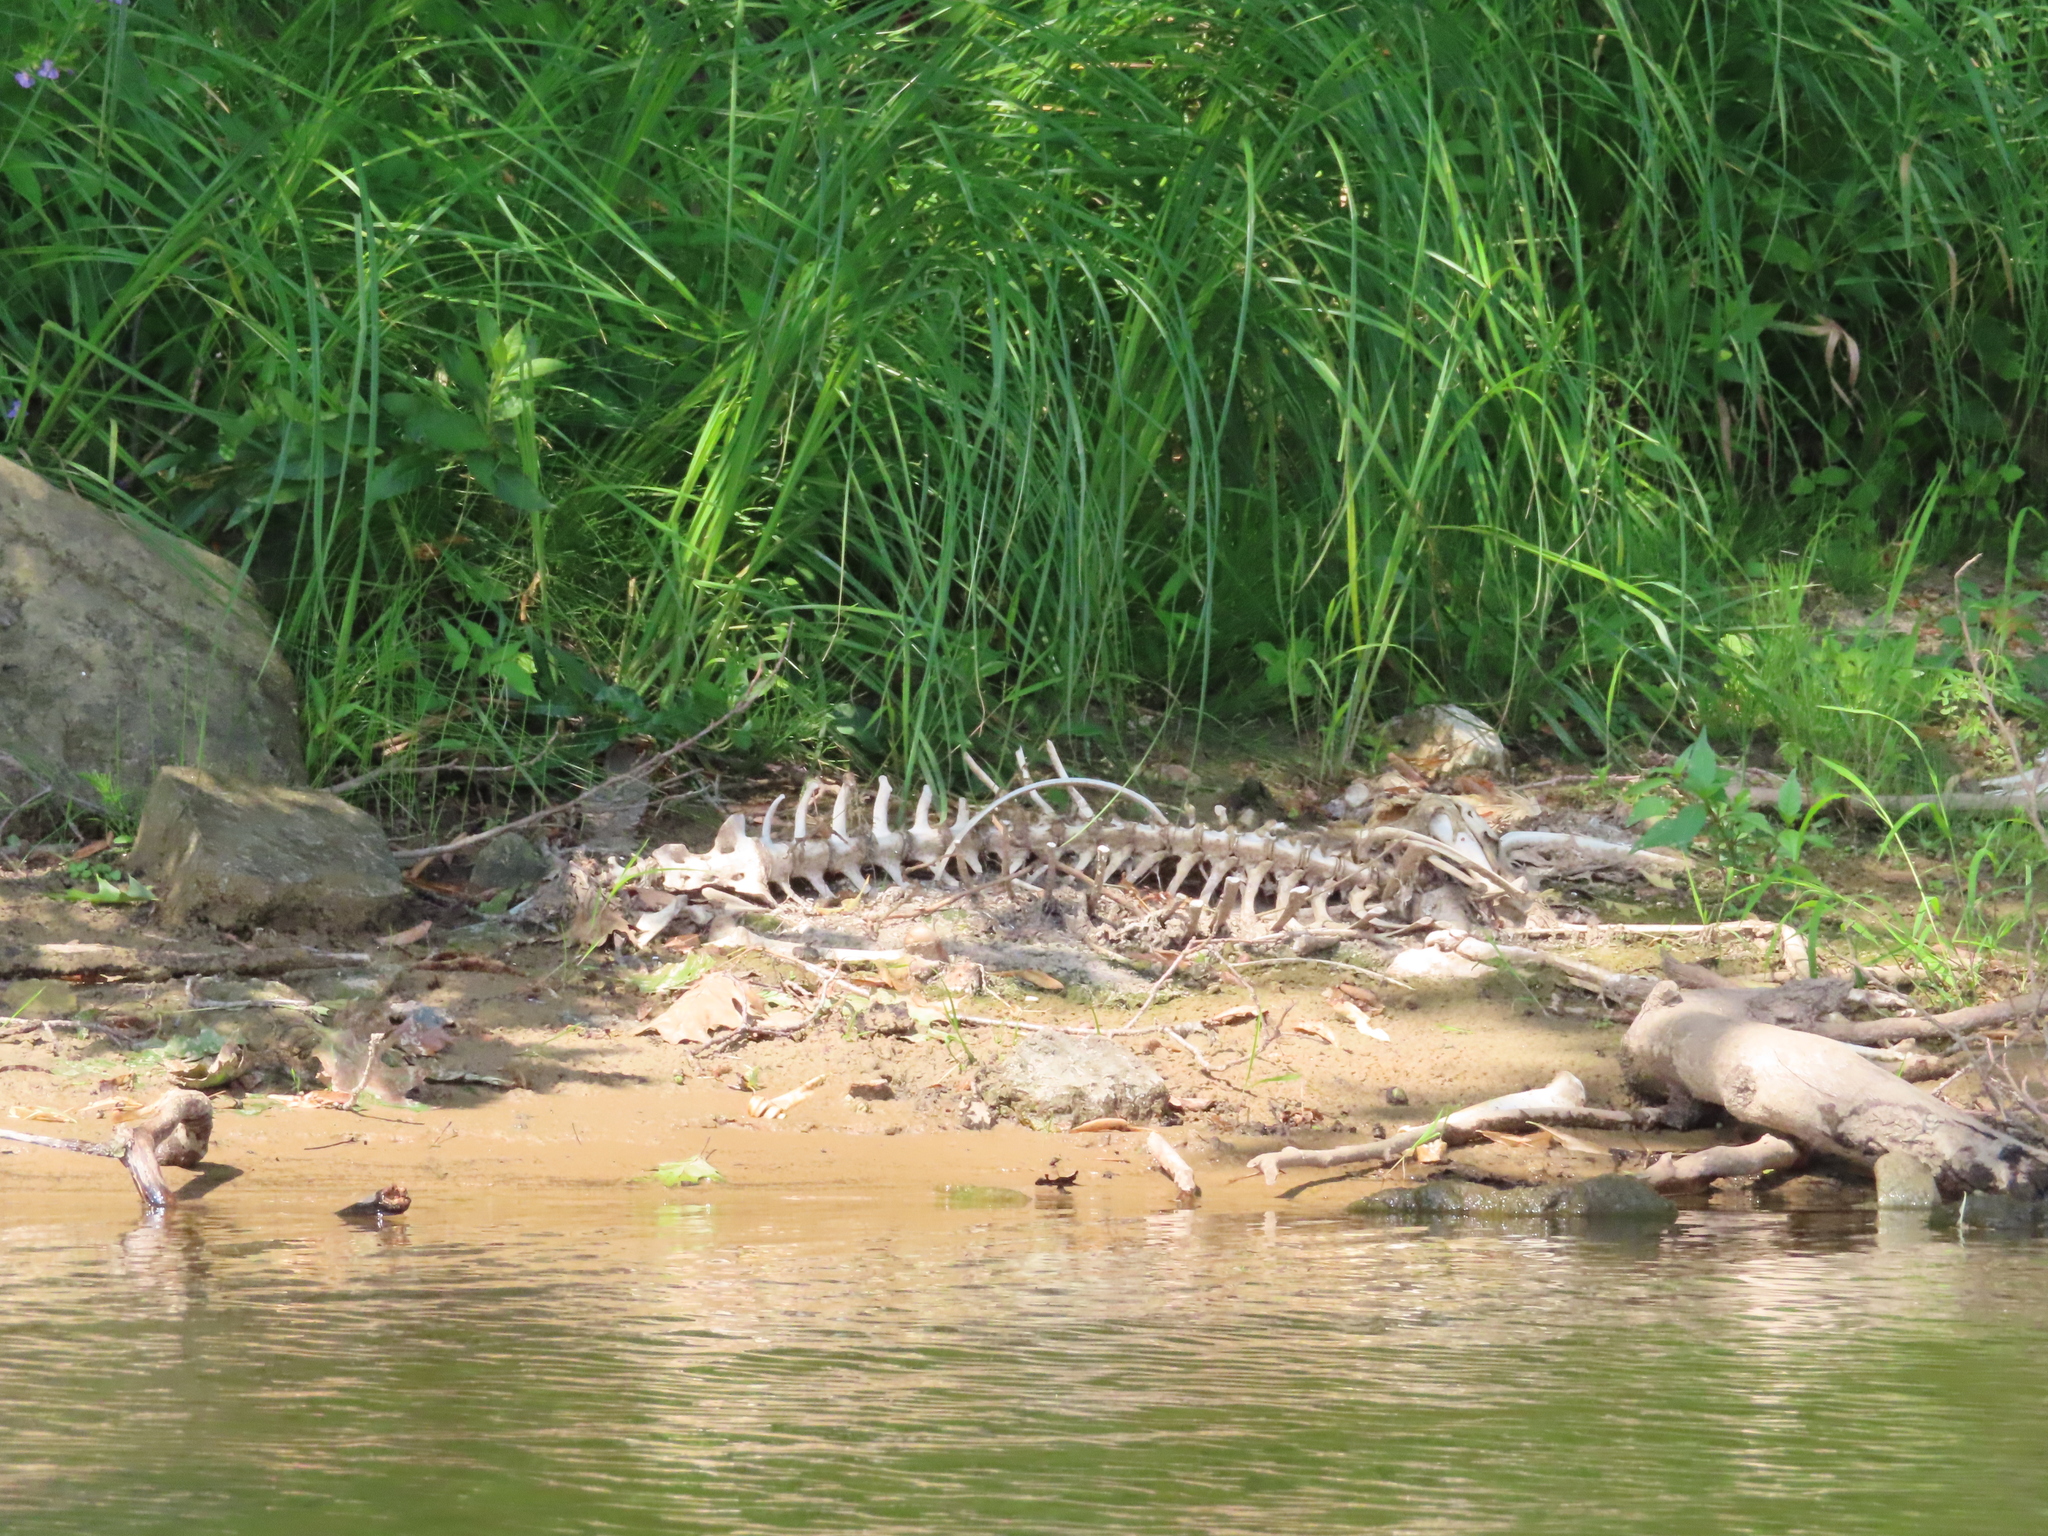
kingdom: Animalia
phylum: Chordata
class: Mammalia
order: Artiodactyla
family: Cervidae
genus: Odocoileus
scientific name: Odocoileus virginianus
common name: White-tailed deer
